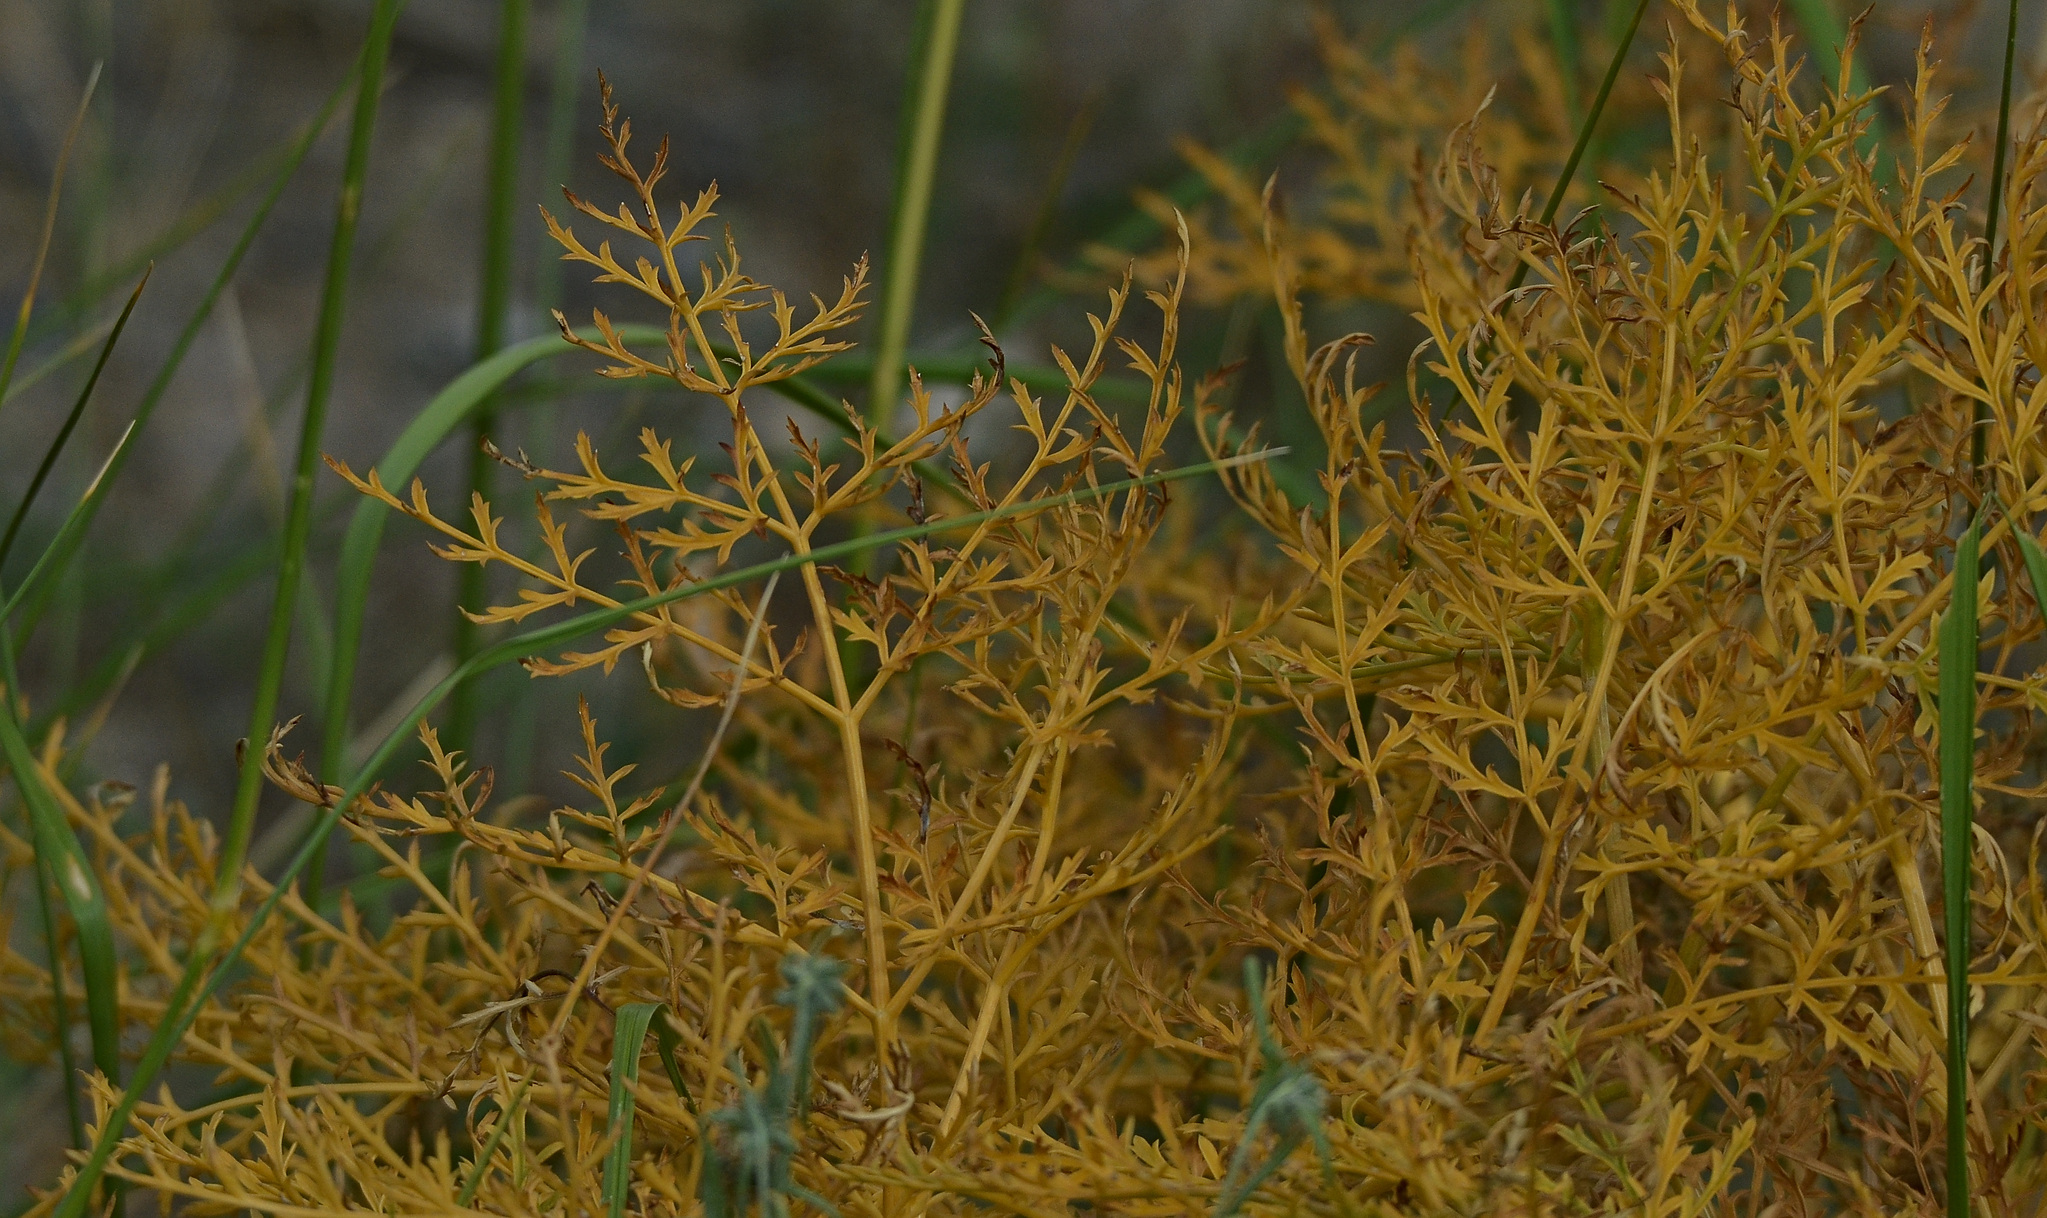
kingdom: Plantae
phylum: Tracheophyta
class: Magnoliopsida
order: Apiales
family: Apiaceae
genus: Ferula
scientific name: Ferula songarica
